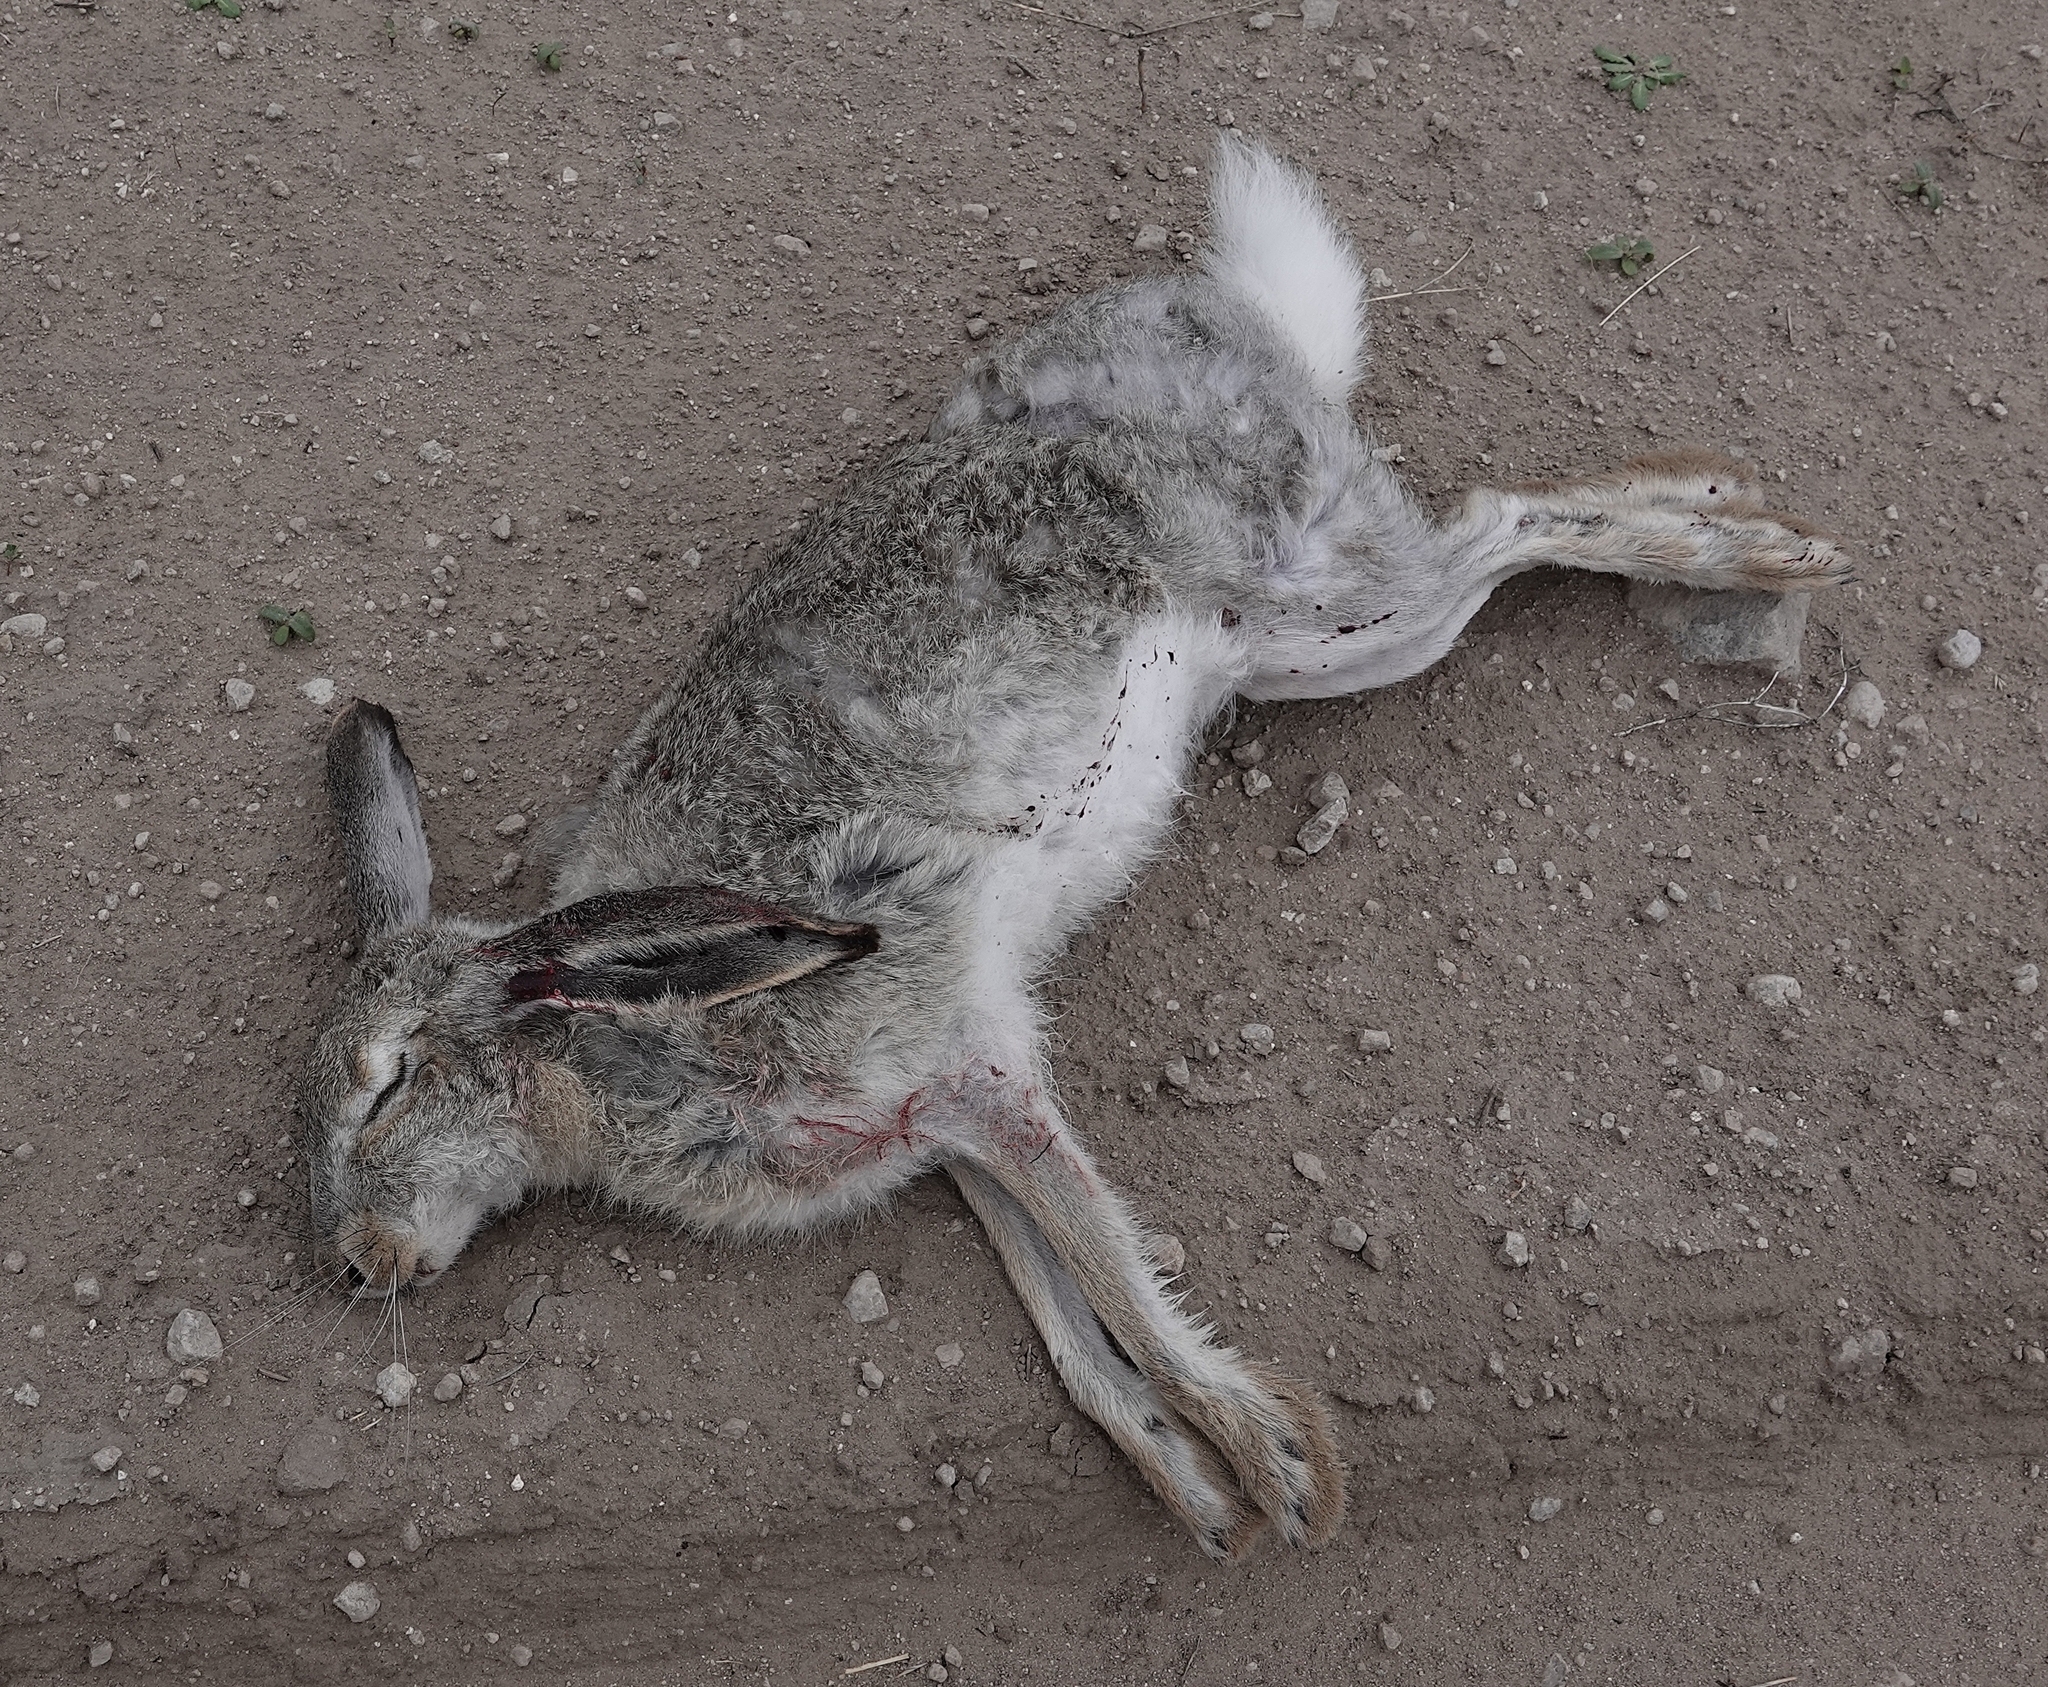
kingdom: Animalia
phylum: Chordata
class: Mammalia
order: Lagomorpha
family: Leporidae
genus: Lepus
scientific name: Lepus townsendii
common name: White-tailed jackrabbit
